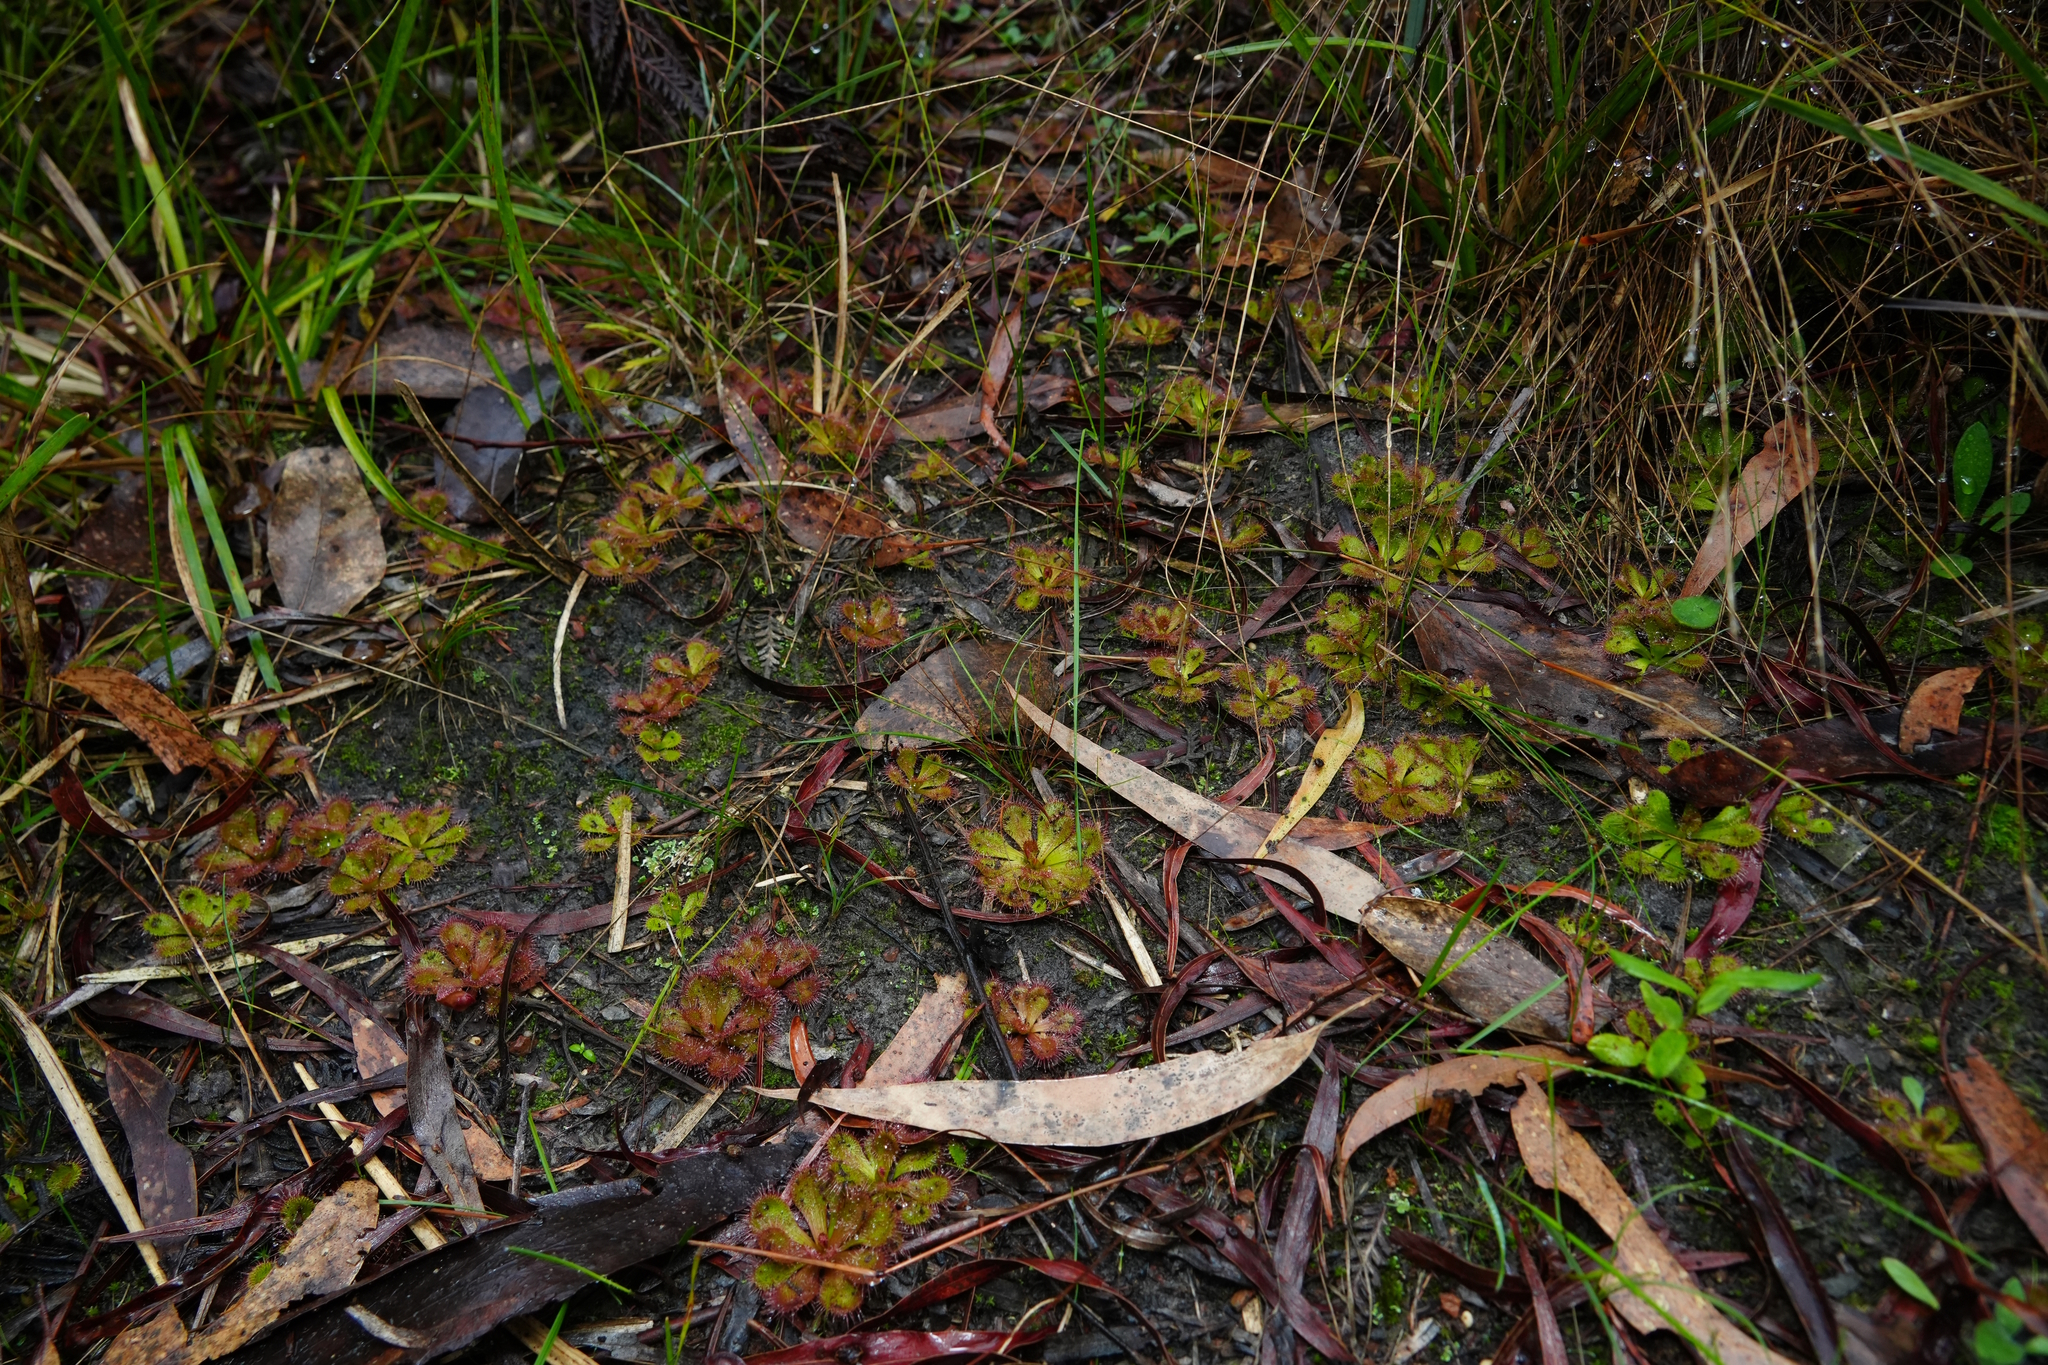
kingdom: Plantae
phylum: Tracheophyta
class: Magnoliopsida
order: Caryophyllales
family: Droseraceae
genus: Drosera
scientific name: Drosera aberrans
